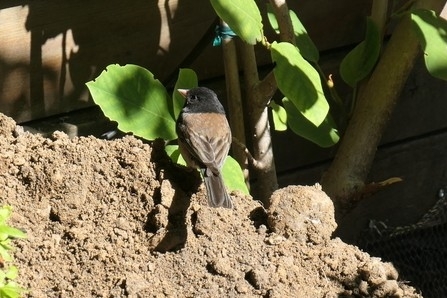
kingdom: Animalia
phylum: Chordata
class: Aves
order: Passeriformes
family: Passerellidae
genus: Junco
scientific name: Junco hyemalis
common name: Dark-eyed junco
